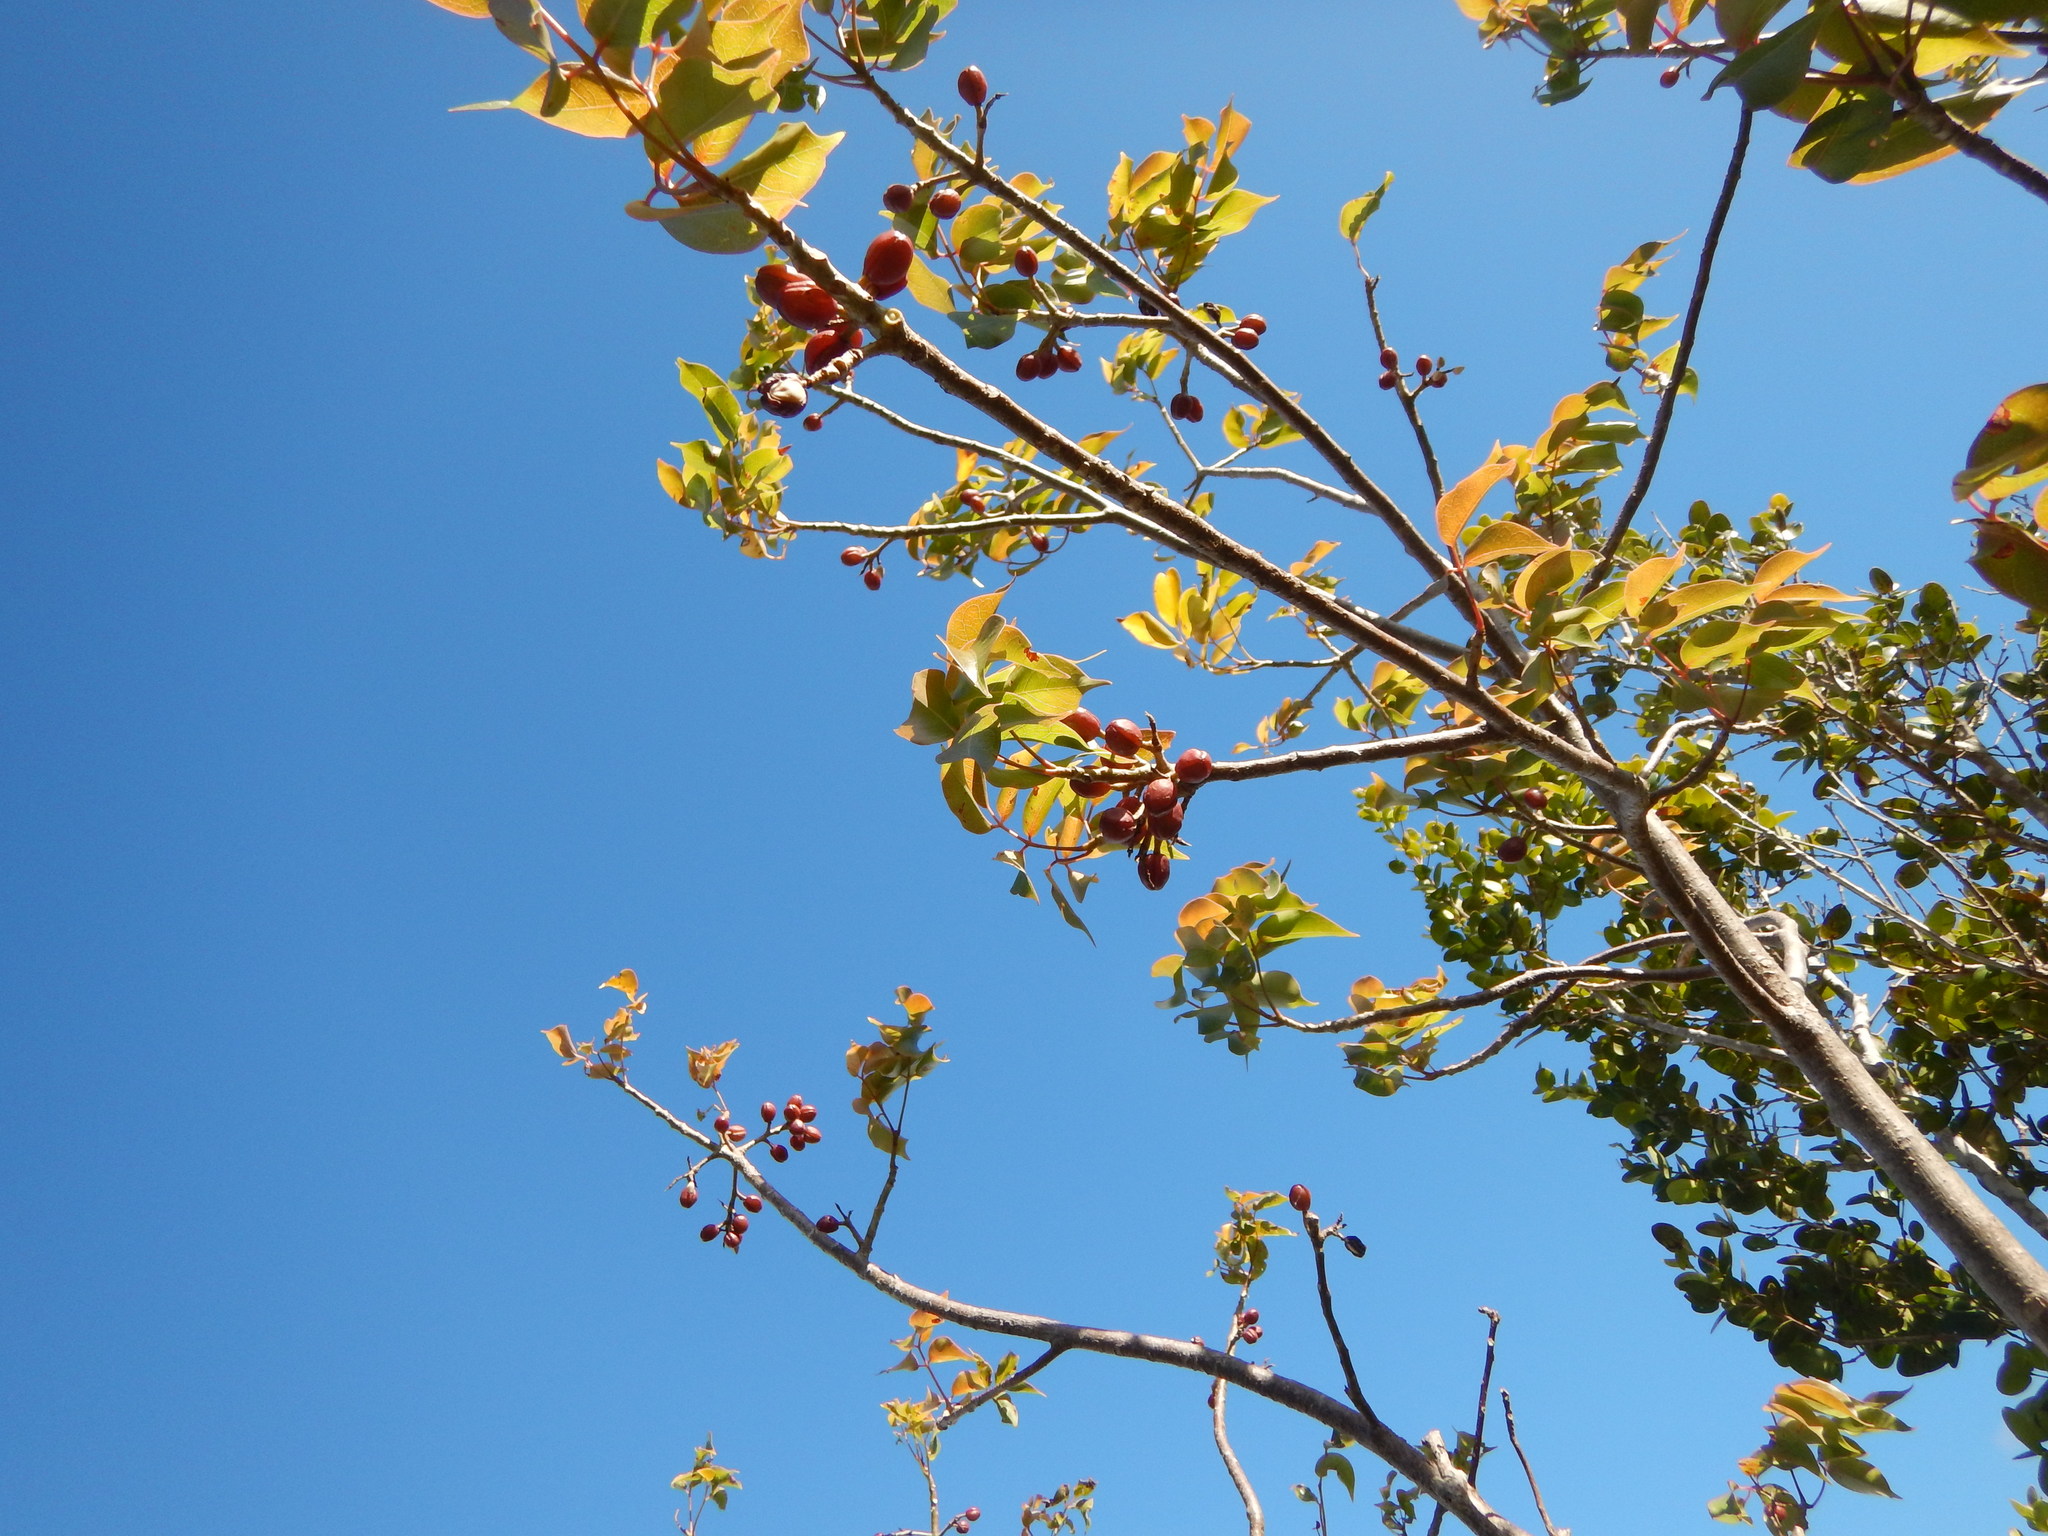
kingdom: Plantae
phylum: Tracheophyta
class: Magnoliopsida
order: Sapindales
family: Burseraceae
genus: Bursera
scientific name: Bursera simaruba
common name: Turpentine tree
